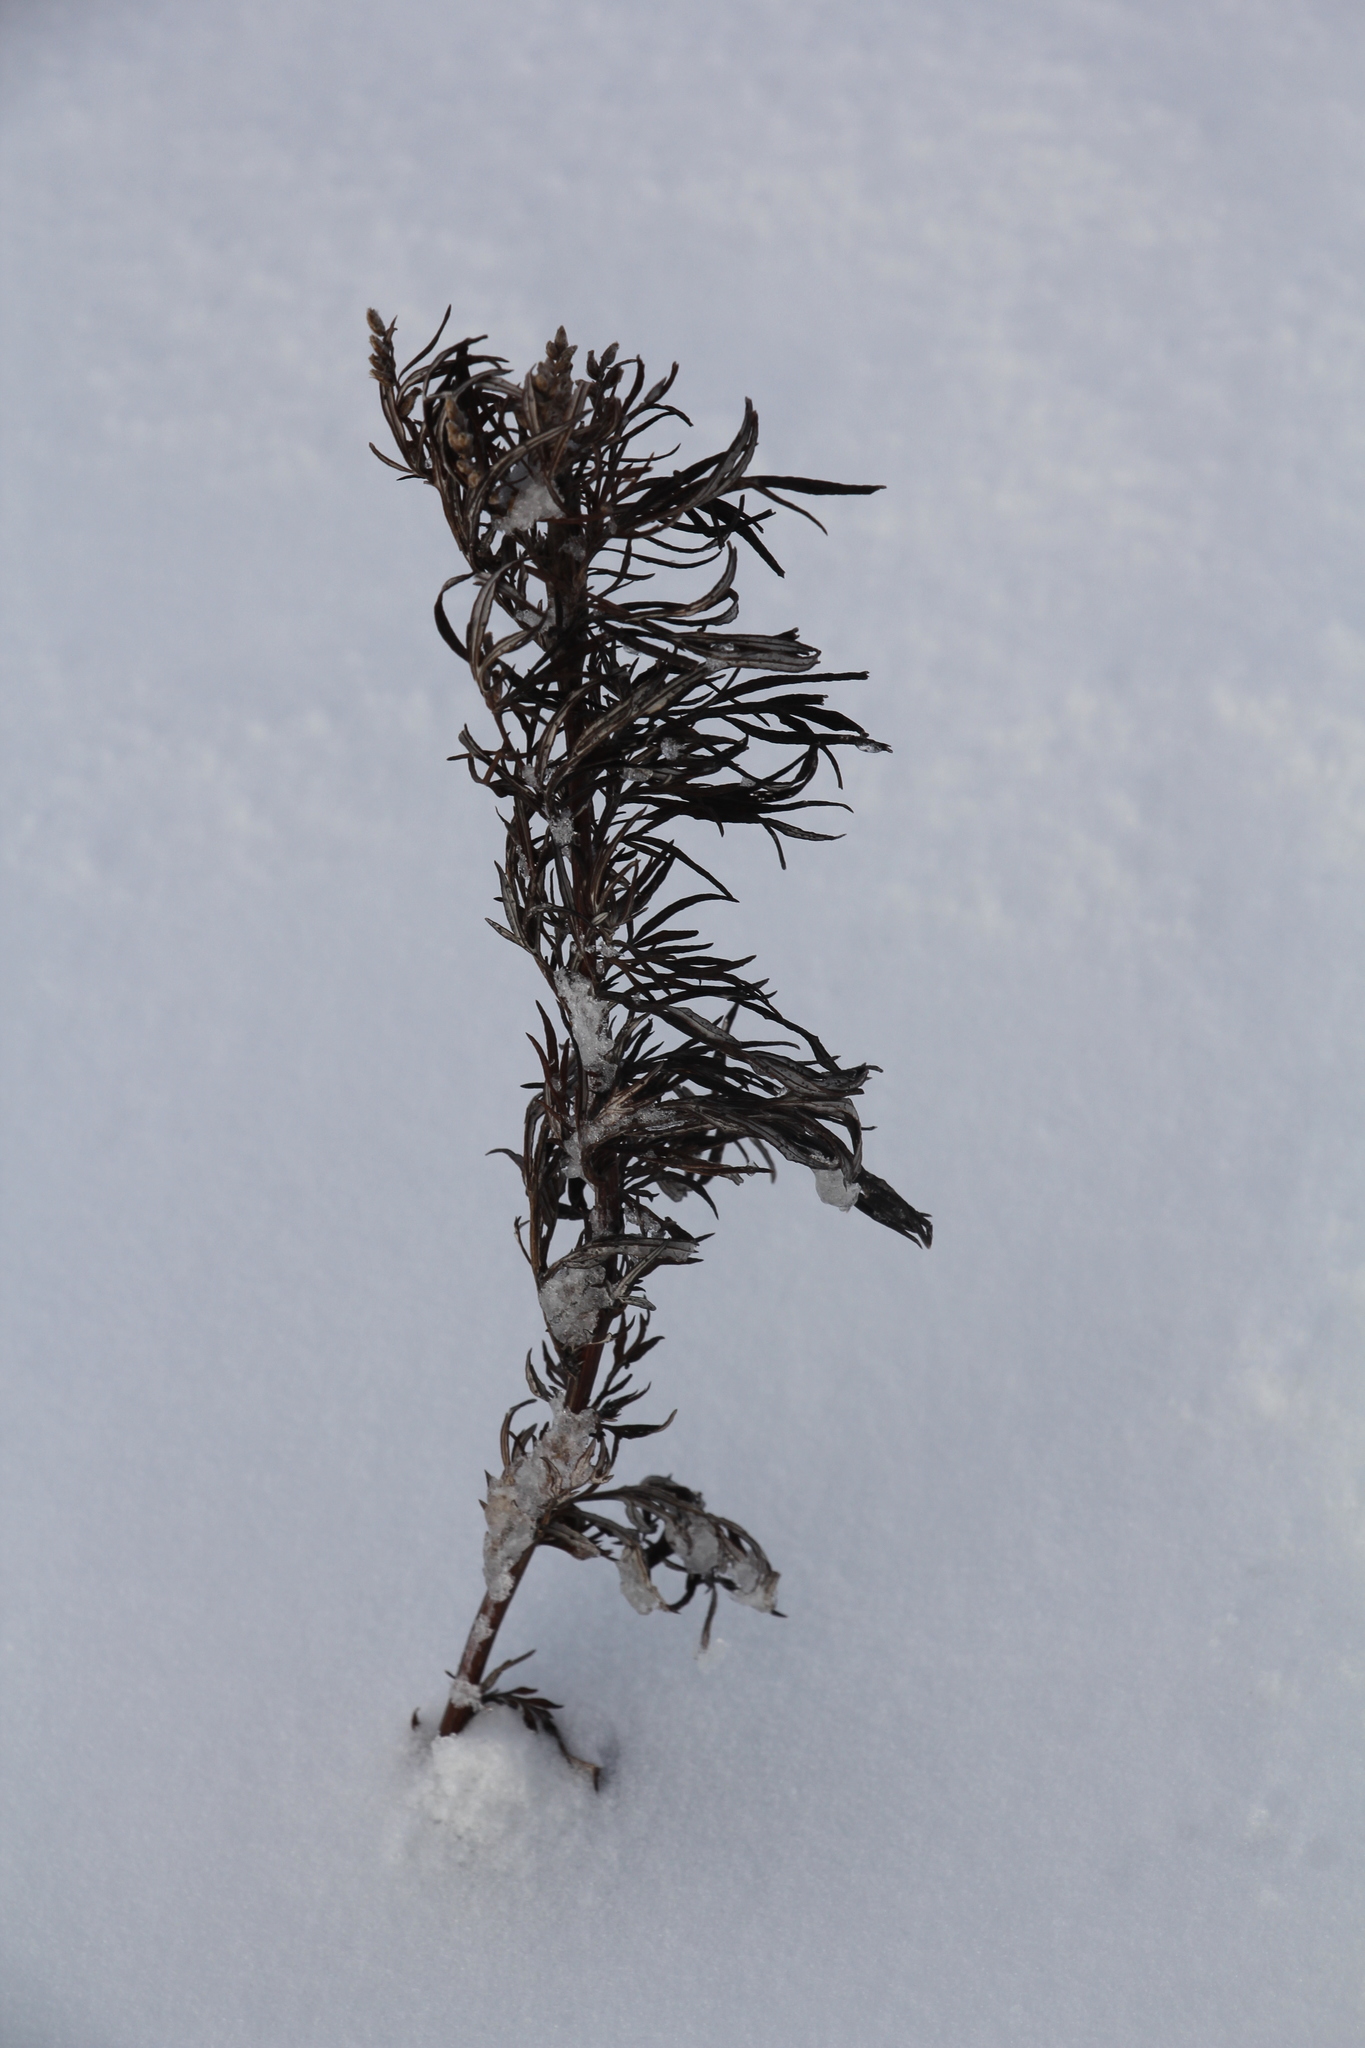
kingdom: Plantae
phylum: Tracheophyta
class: Magnoliopsida
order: Asterales
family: Asteraceae
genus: Artemisia
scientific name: Artemisia vulgaris
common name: Mugwort
